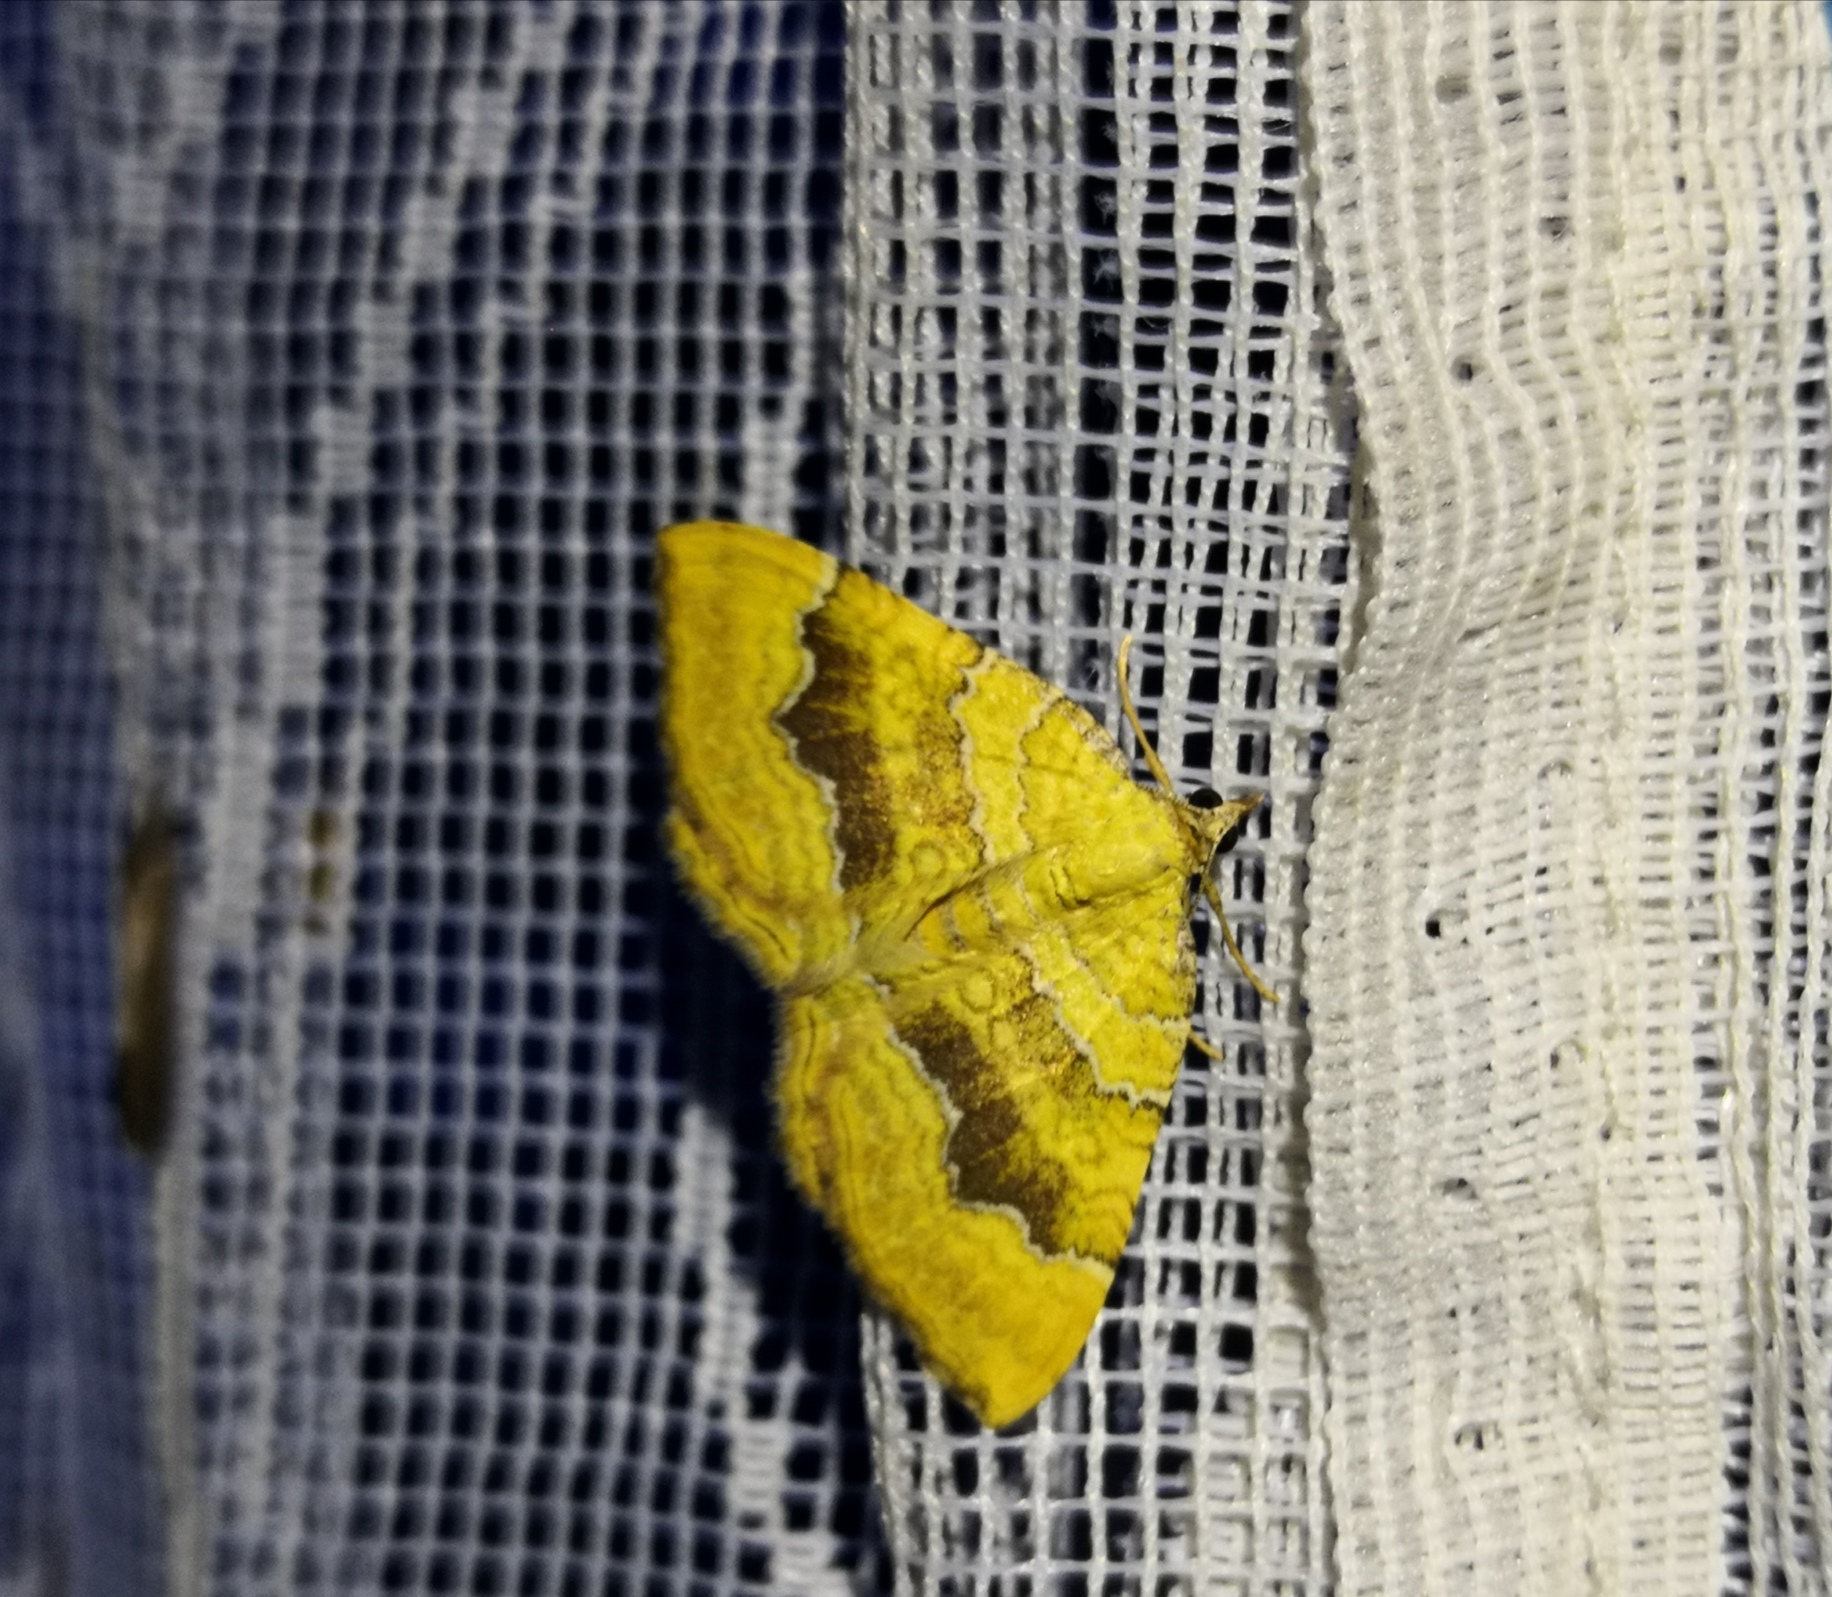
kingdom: Animalia
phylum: Arthropoda
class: Insecta
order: Lepidoptera
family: Geometridae
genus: Camptogramma
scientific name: Camptogramma bilineata
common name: Yellow shell
